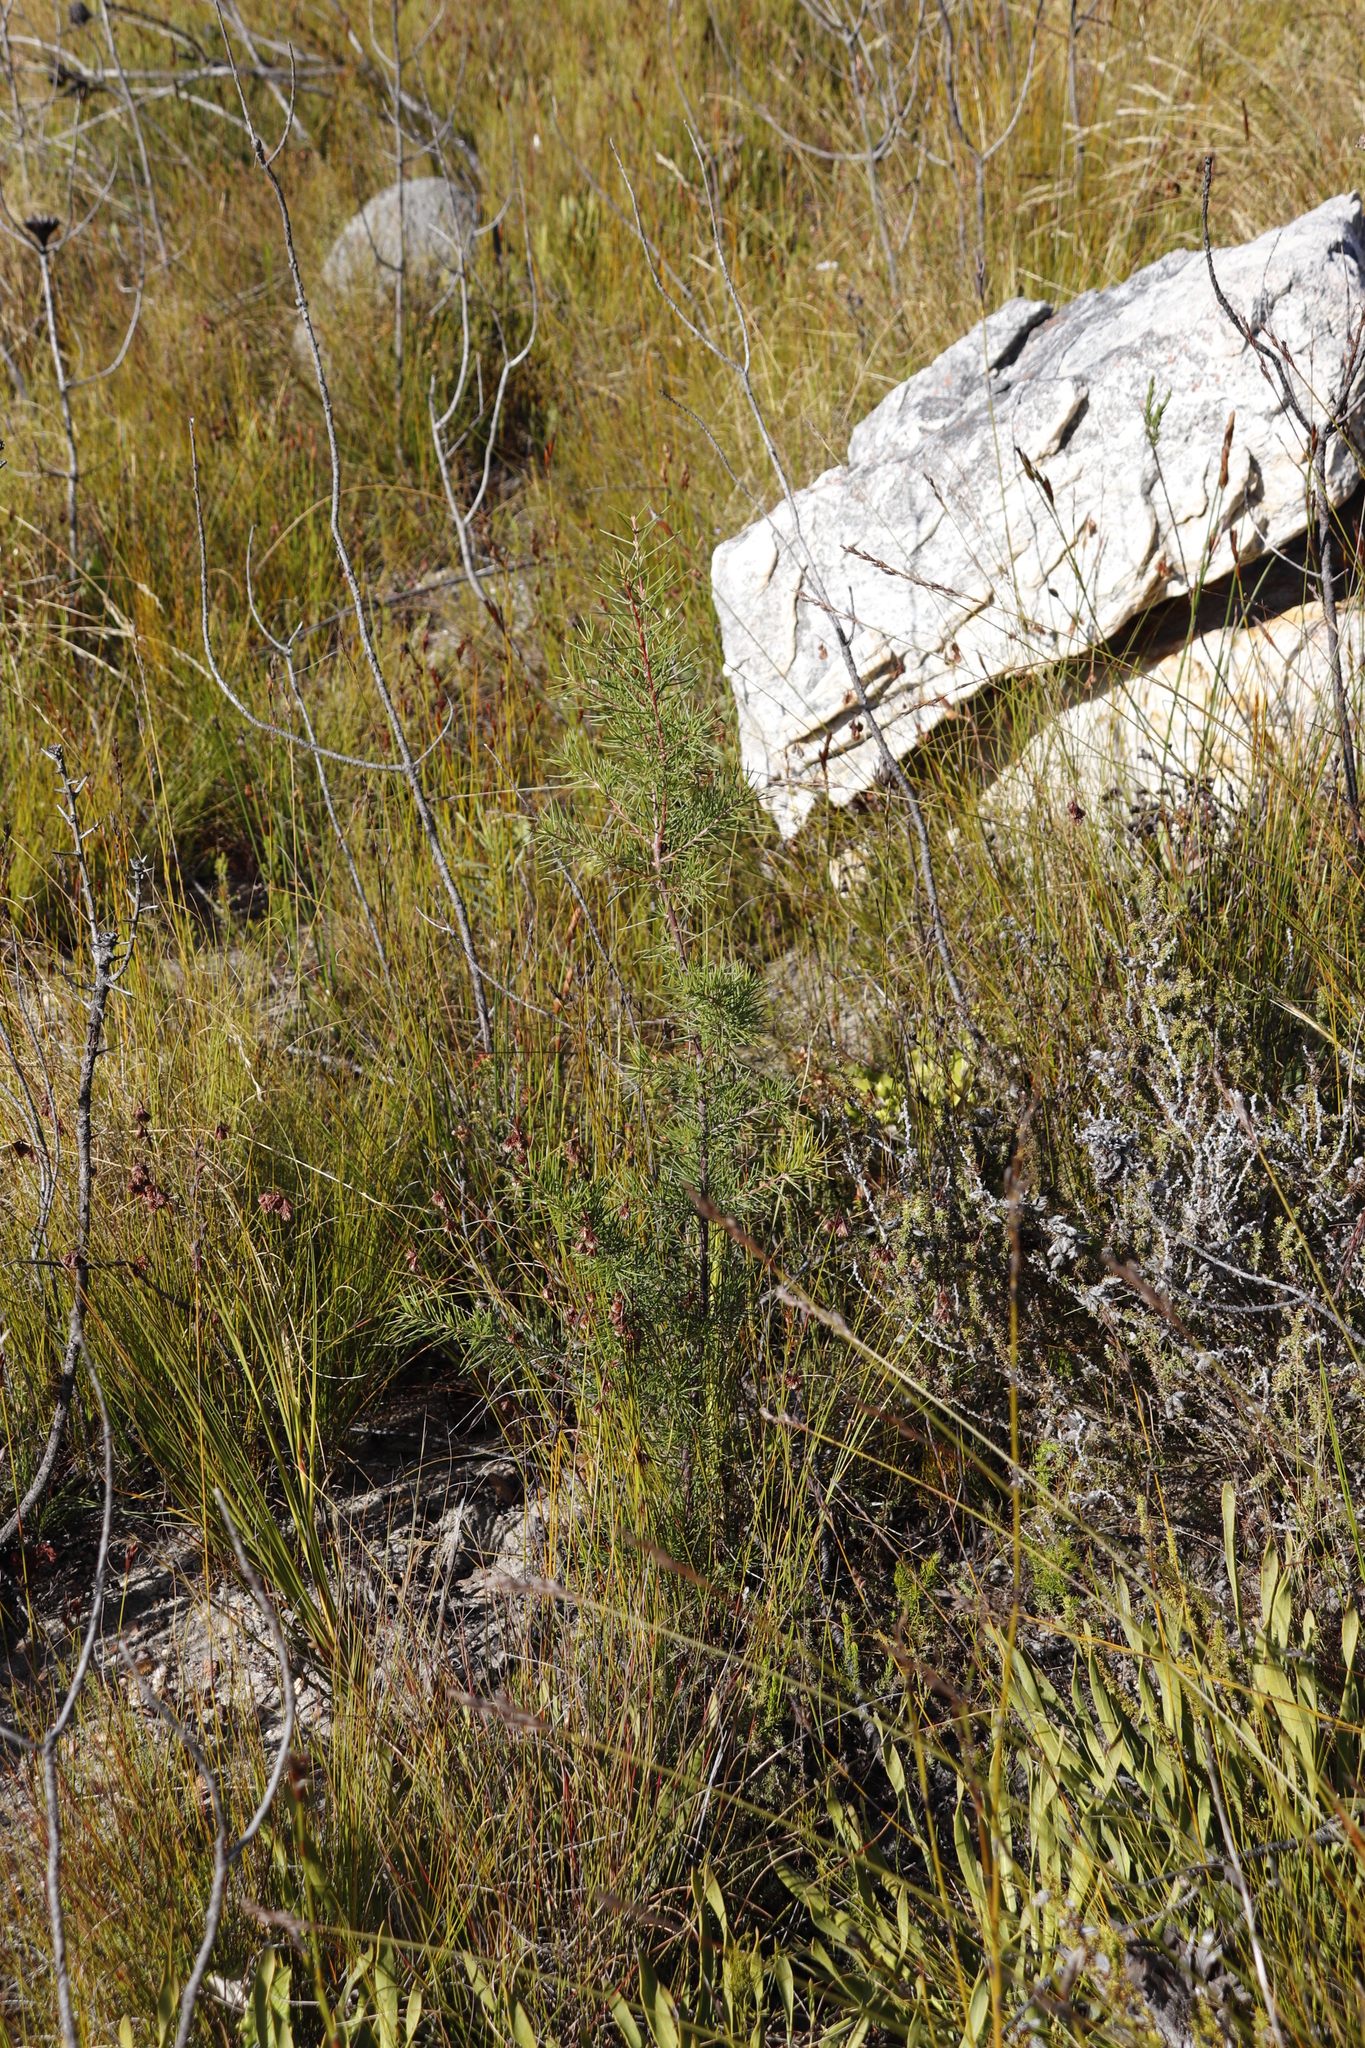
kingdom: Plantae
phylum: Tracheophyta
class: Magnoliopsida
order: Proteales
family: Proteaceae
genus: Hakea
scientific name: Hakea sericea
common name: Needle bush
